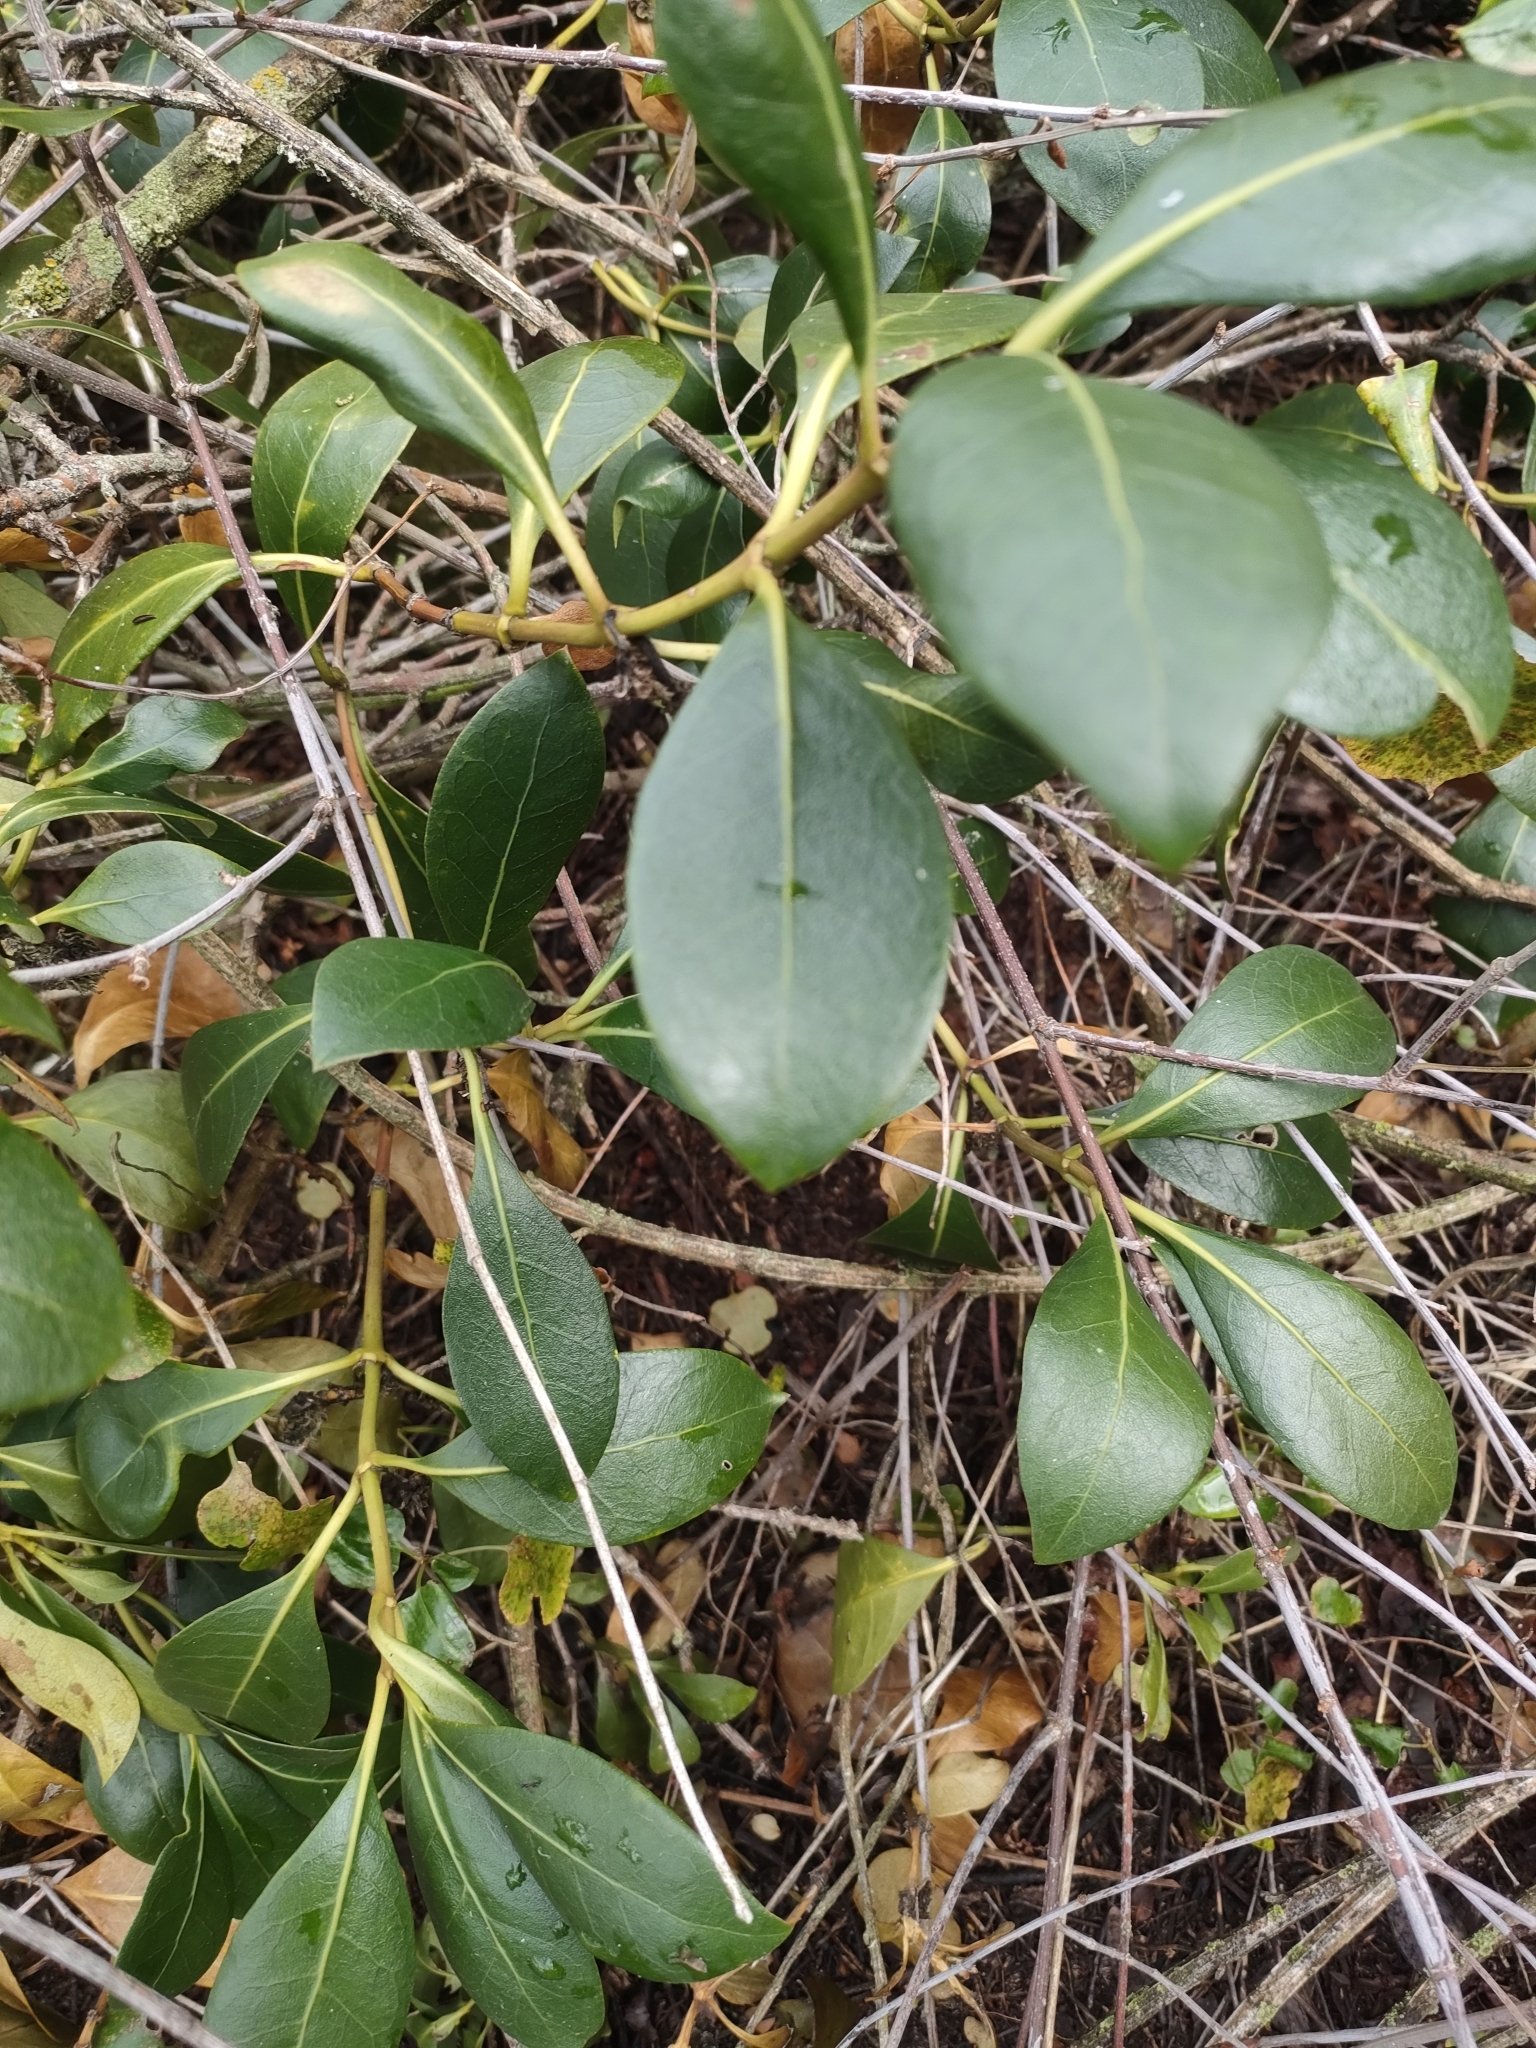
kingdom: Plantae
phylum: Tracheophyta
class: Magnoliopsida
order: Gentianales
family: Rubiaceae
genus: Coprosma
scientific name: Coprosma lucida
